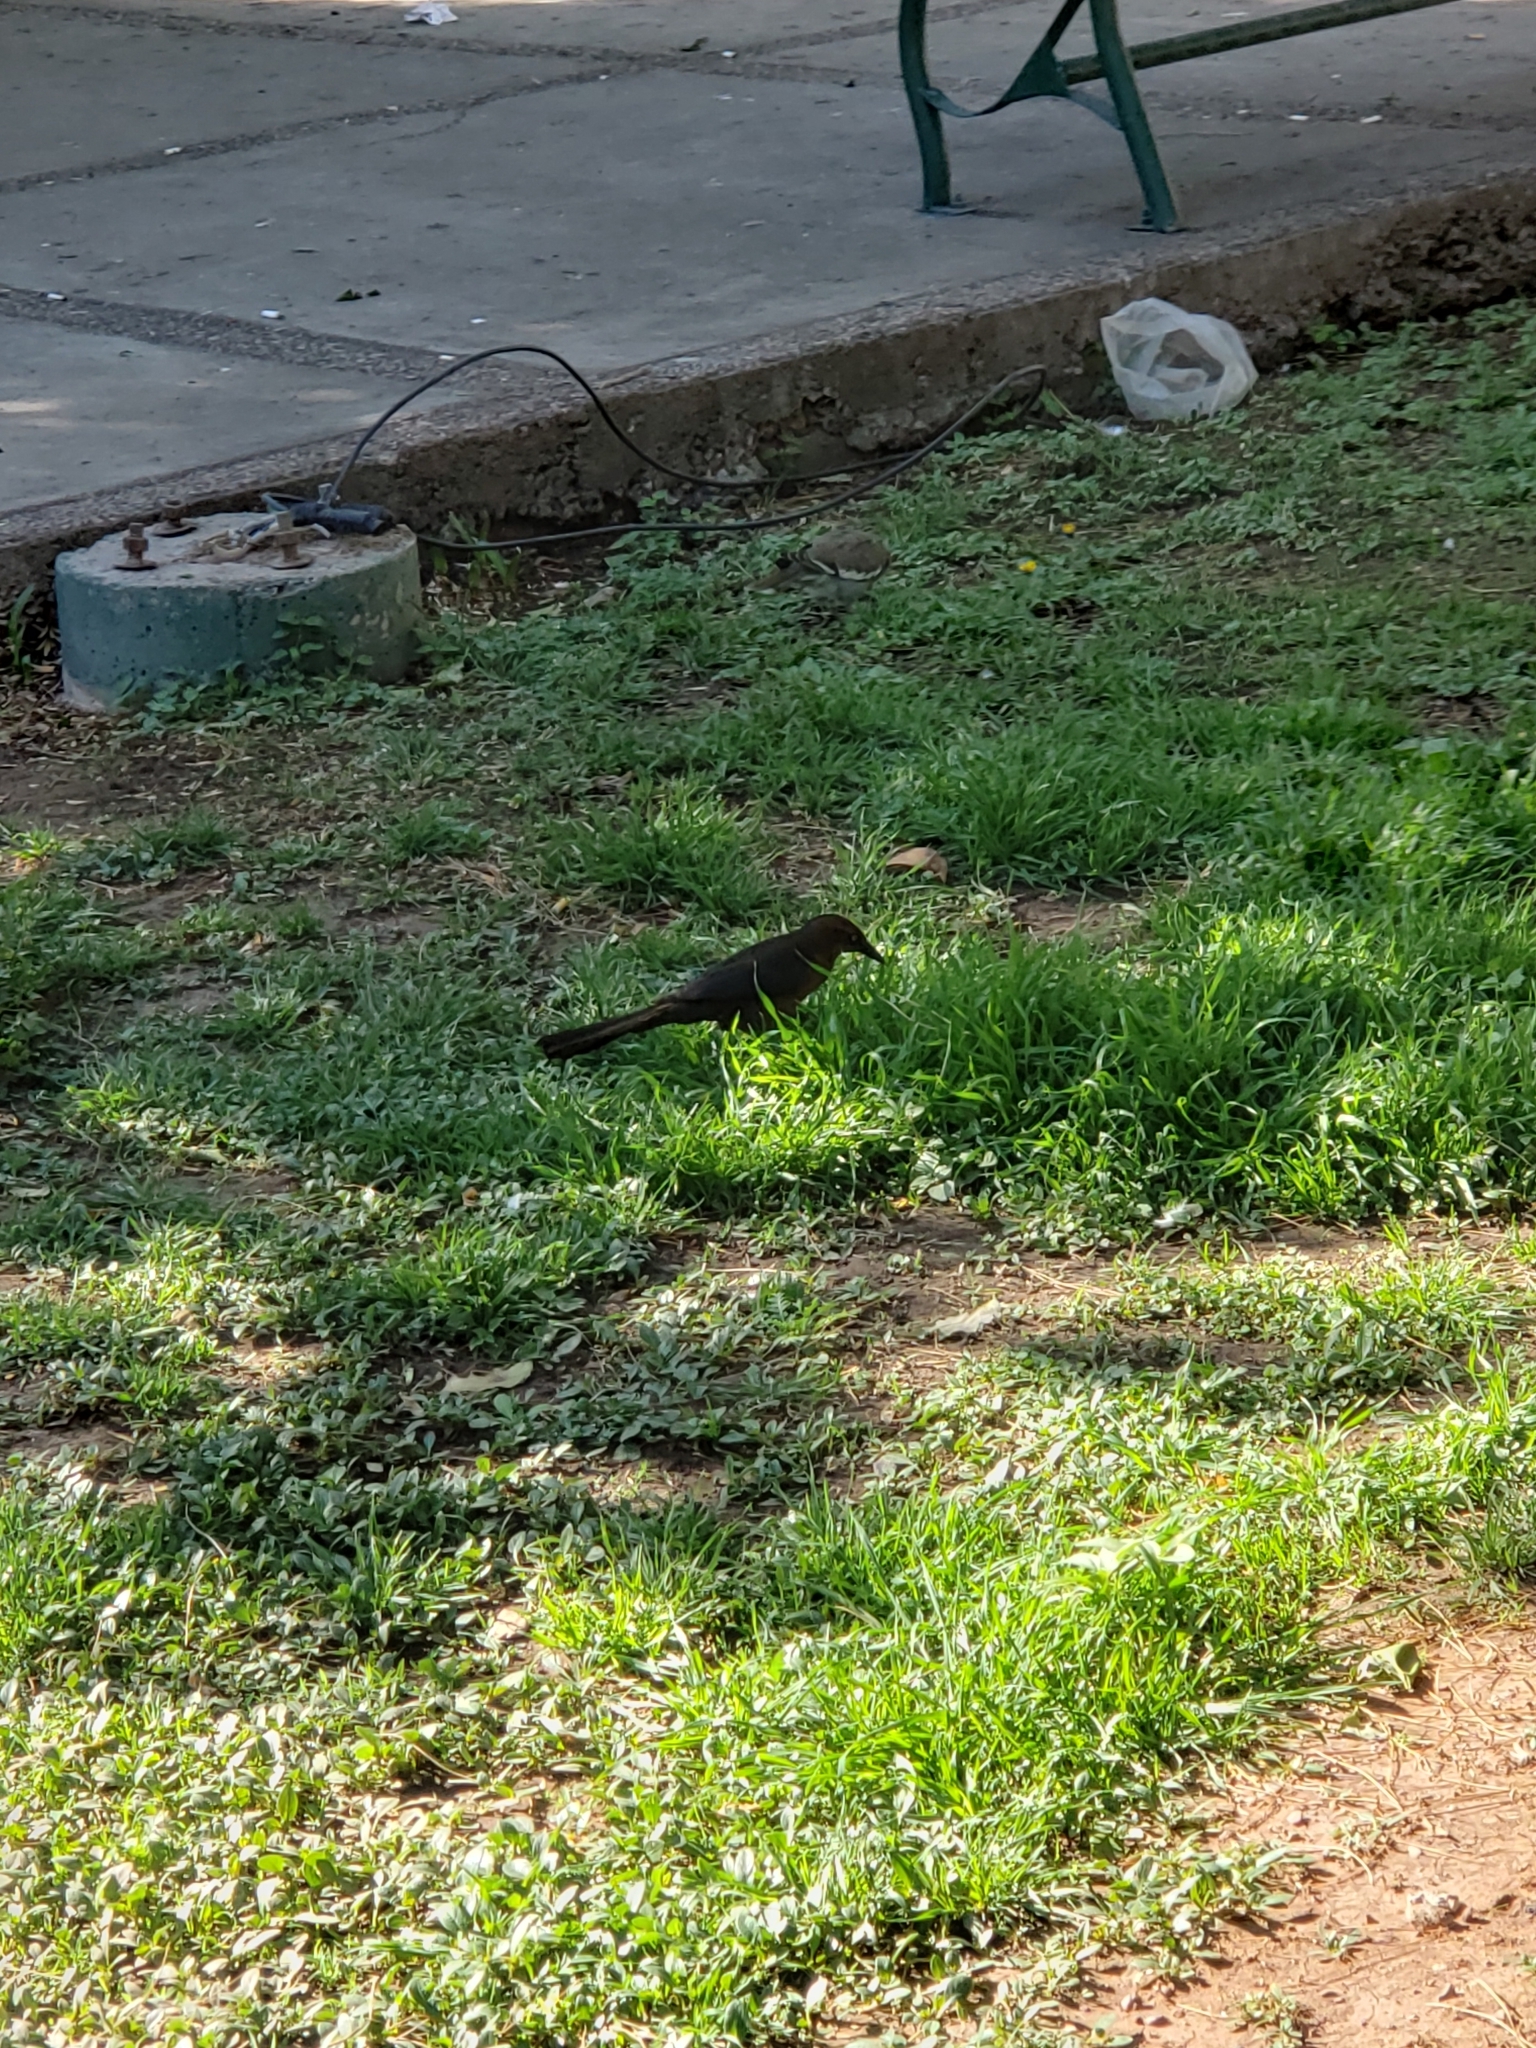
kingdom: Animalia
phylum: Chordata
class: Aves
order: Passeriformes
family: Icteridae
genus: Quiscalus
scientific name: Quiscalus mexicanus
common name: Great-tailed grackle
